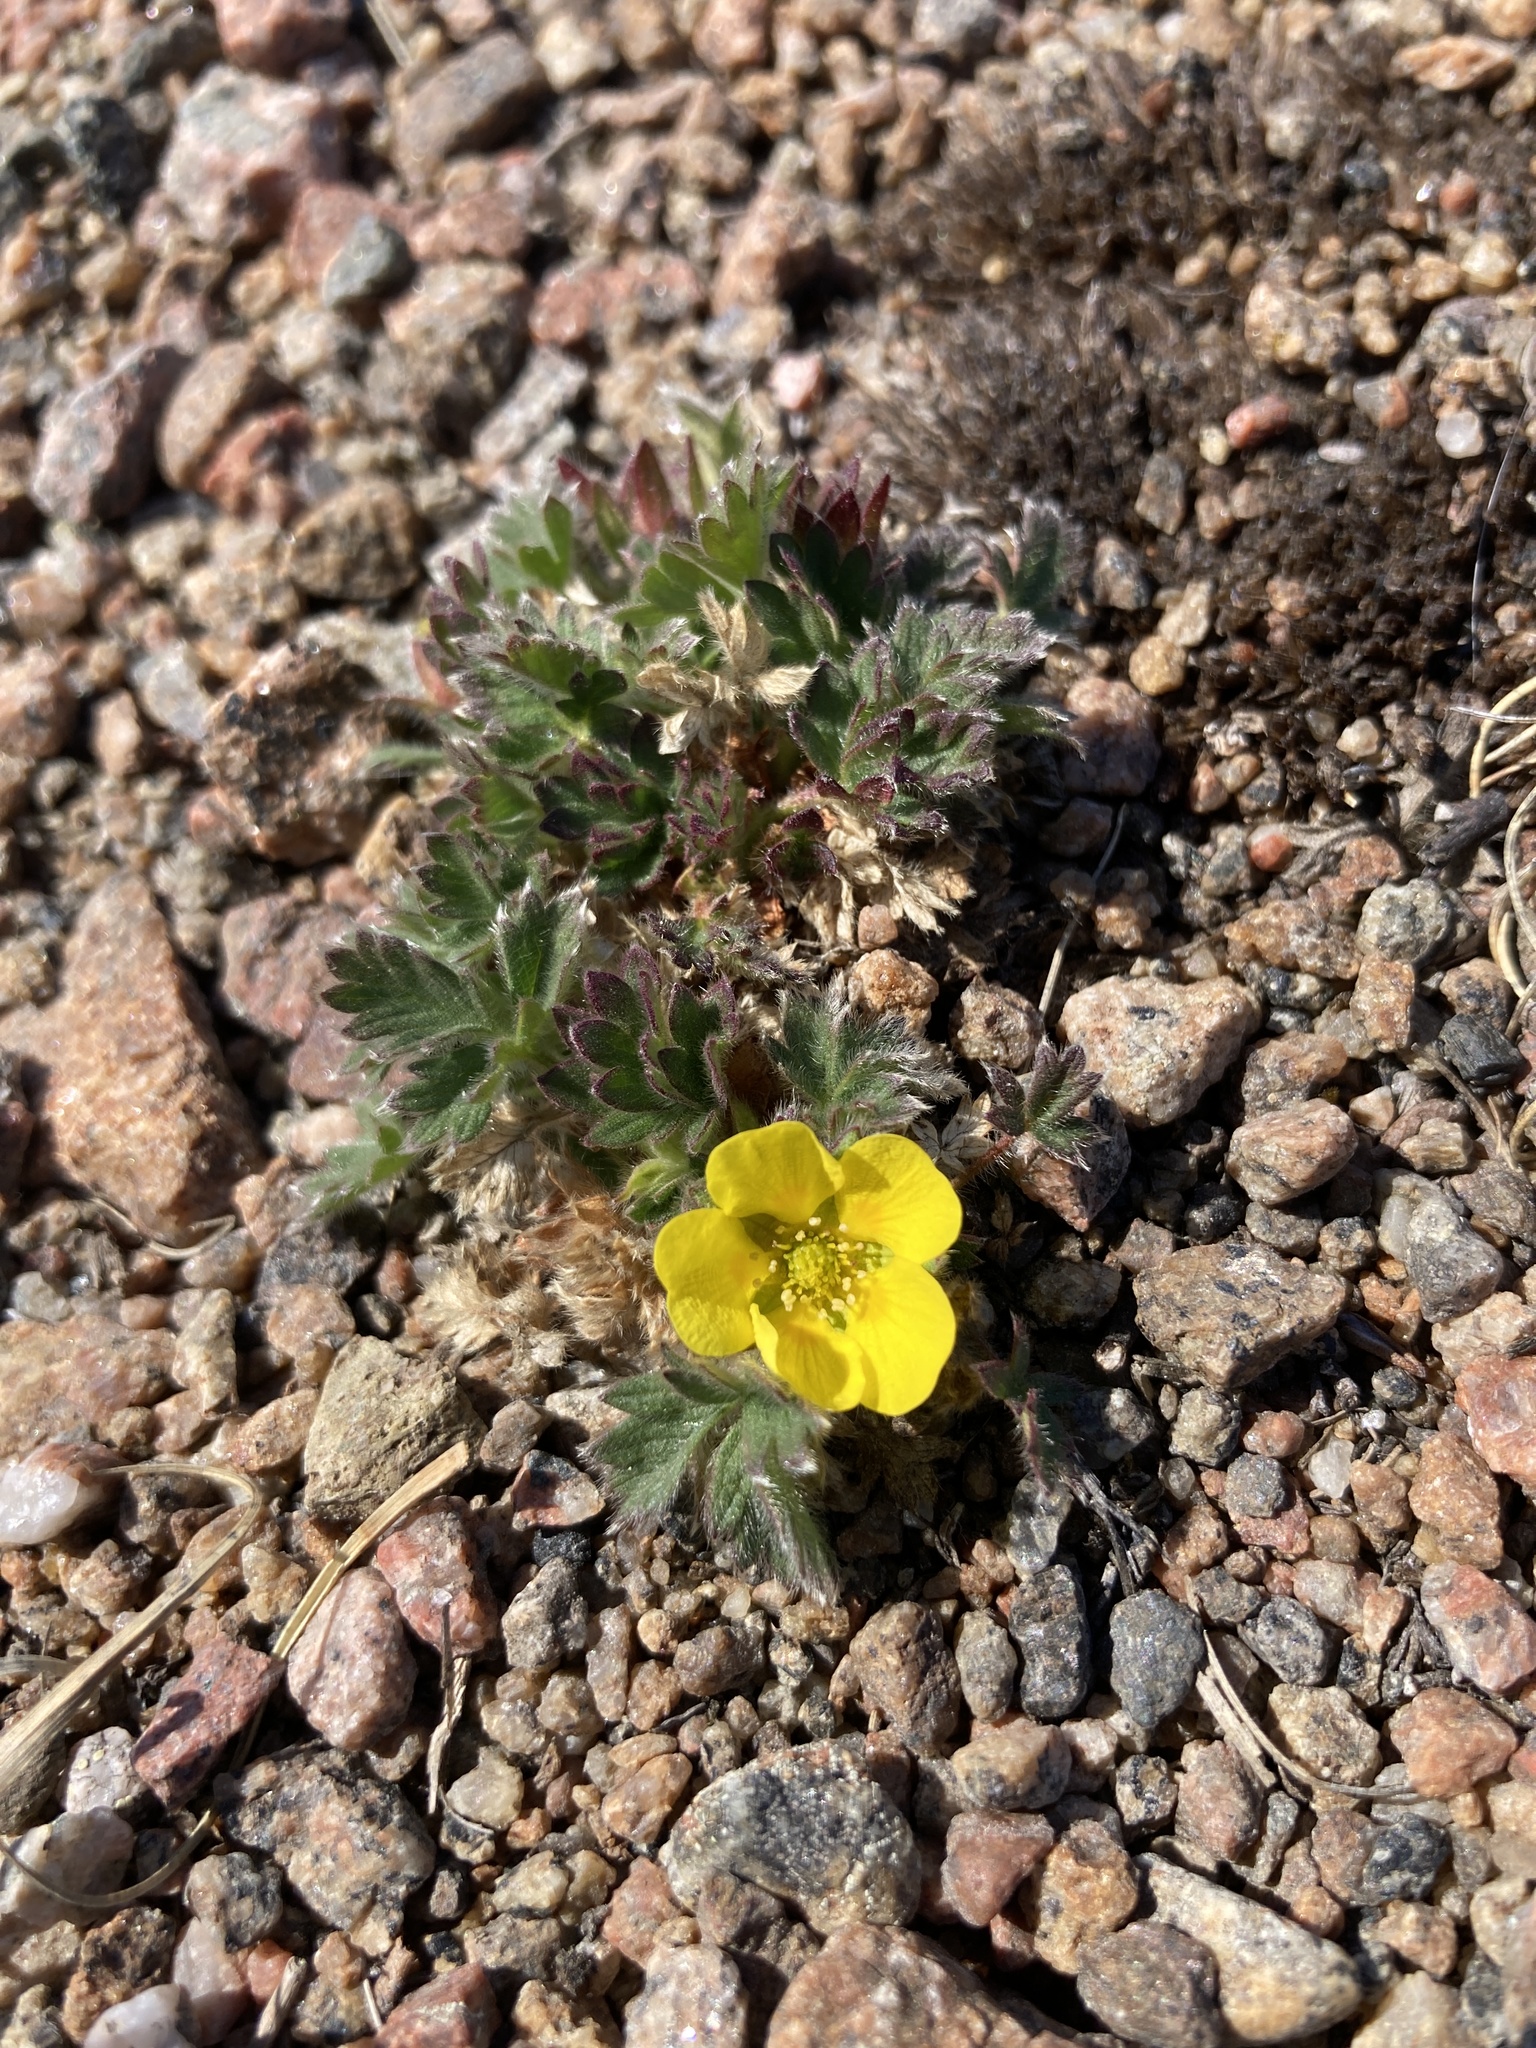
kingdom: Plantae
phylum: Tracheophyta
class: Magnoliopsida
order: Rosales
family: Rosaceae
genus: Potentilla
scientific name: Potentilla hyparctica
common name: Arctic cinquefoil
